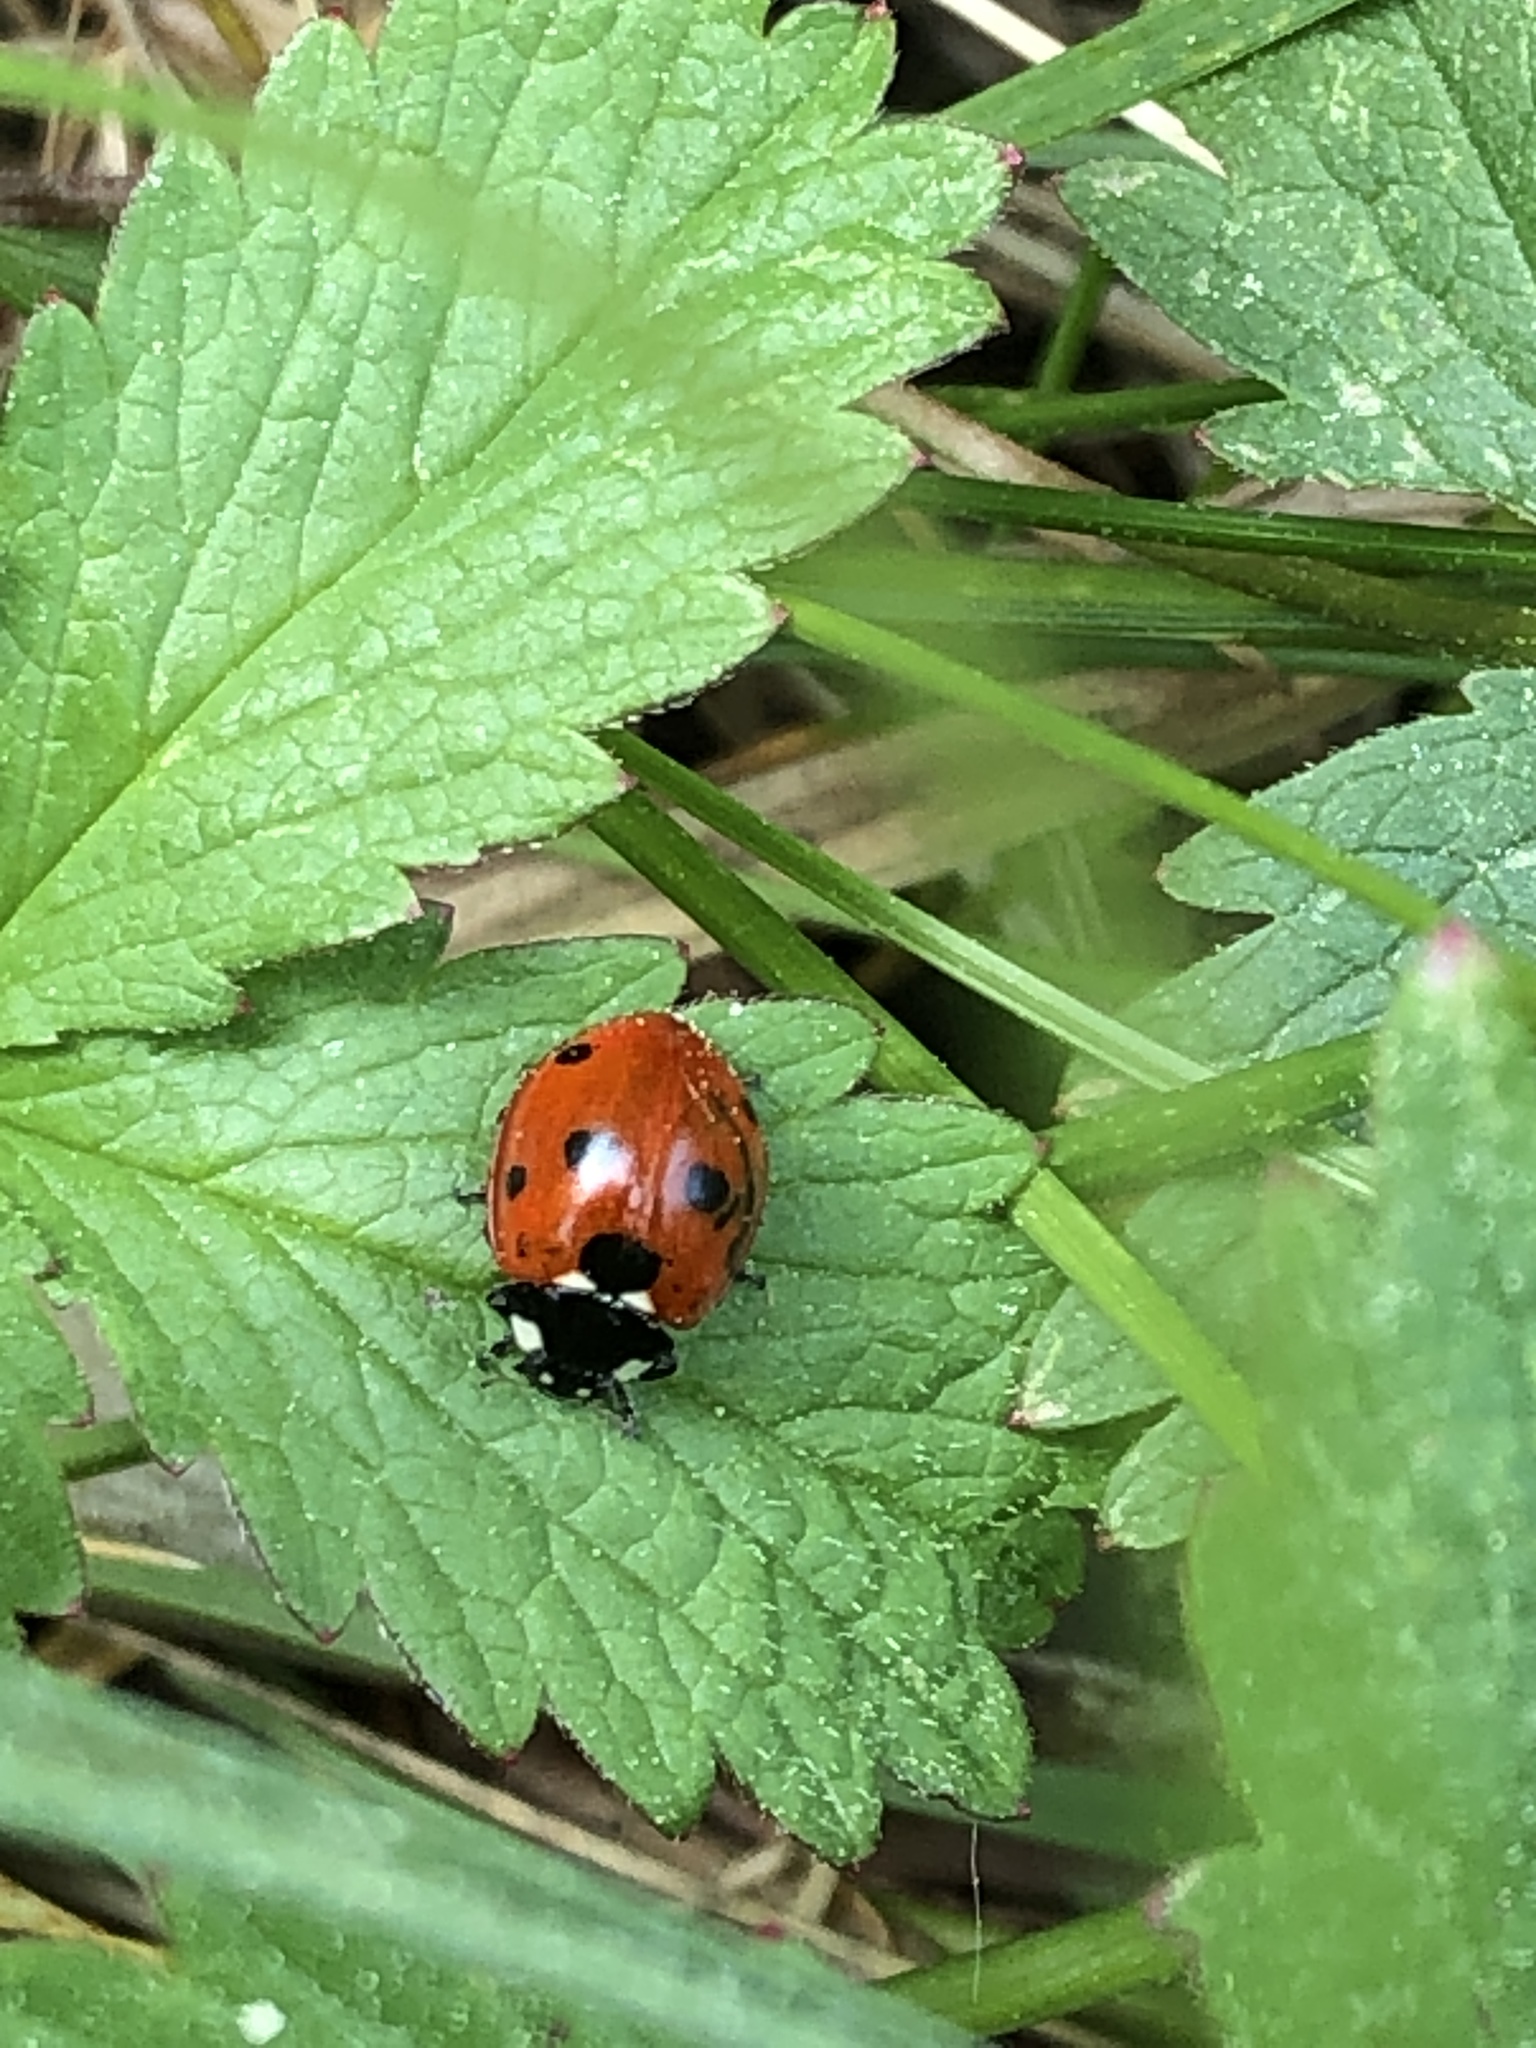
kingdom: Animalia
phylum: Arthropoda
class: Insecta
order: Coleoptera
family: Coccinellidae
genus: Coccinella
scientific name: Coccinella septempunctata
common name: Sevenspotted lady beetle
